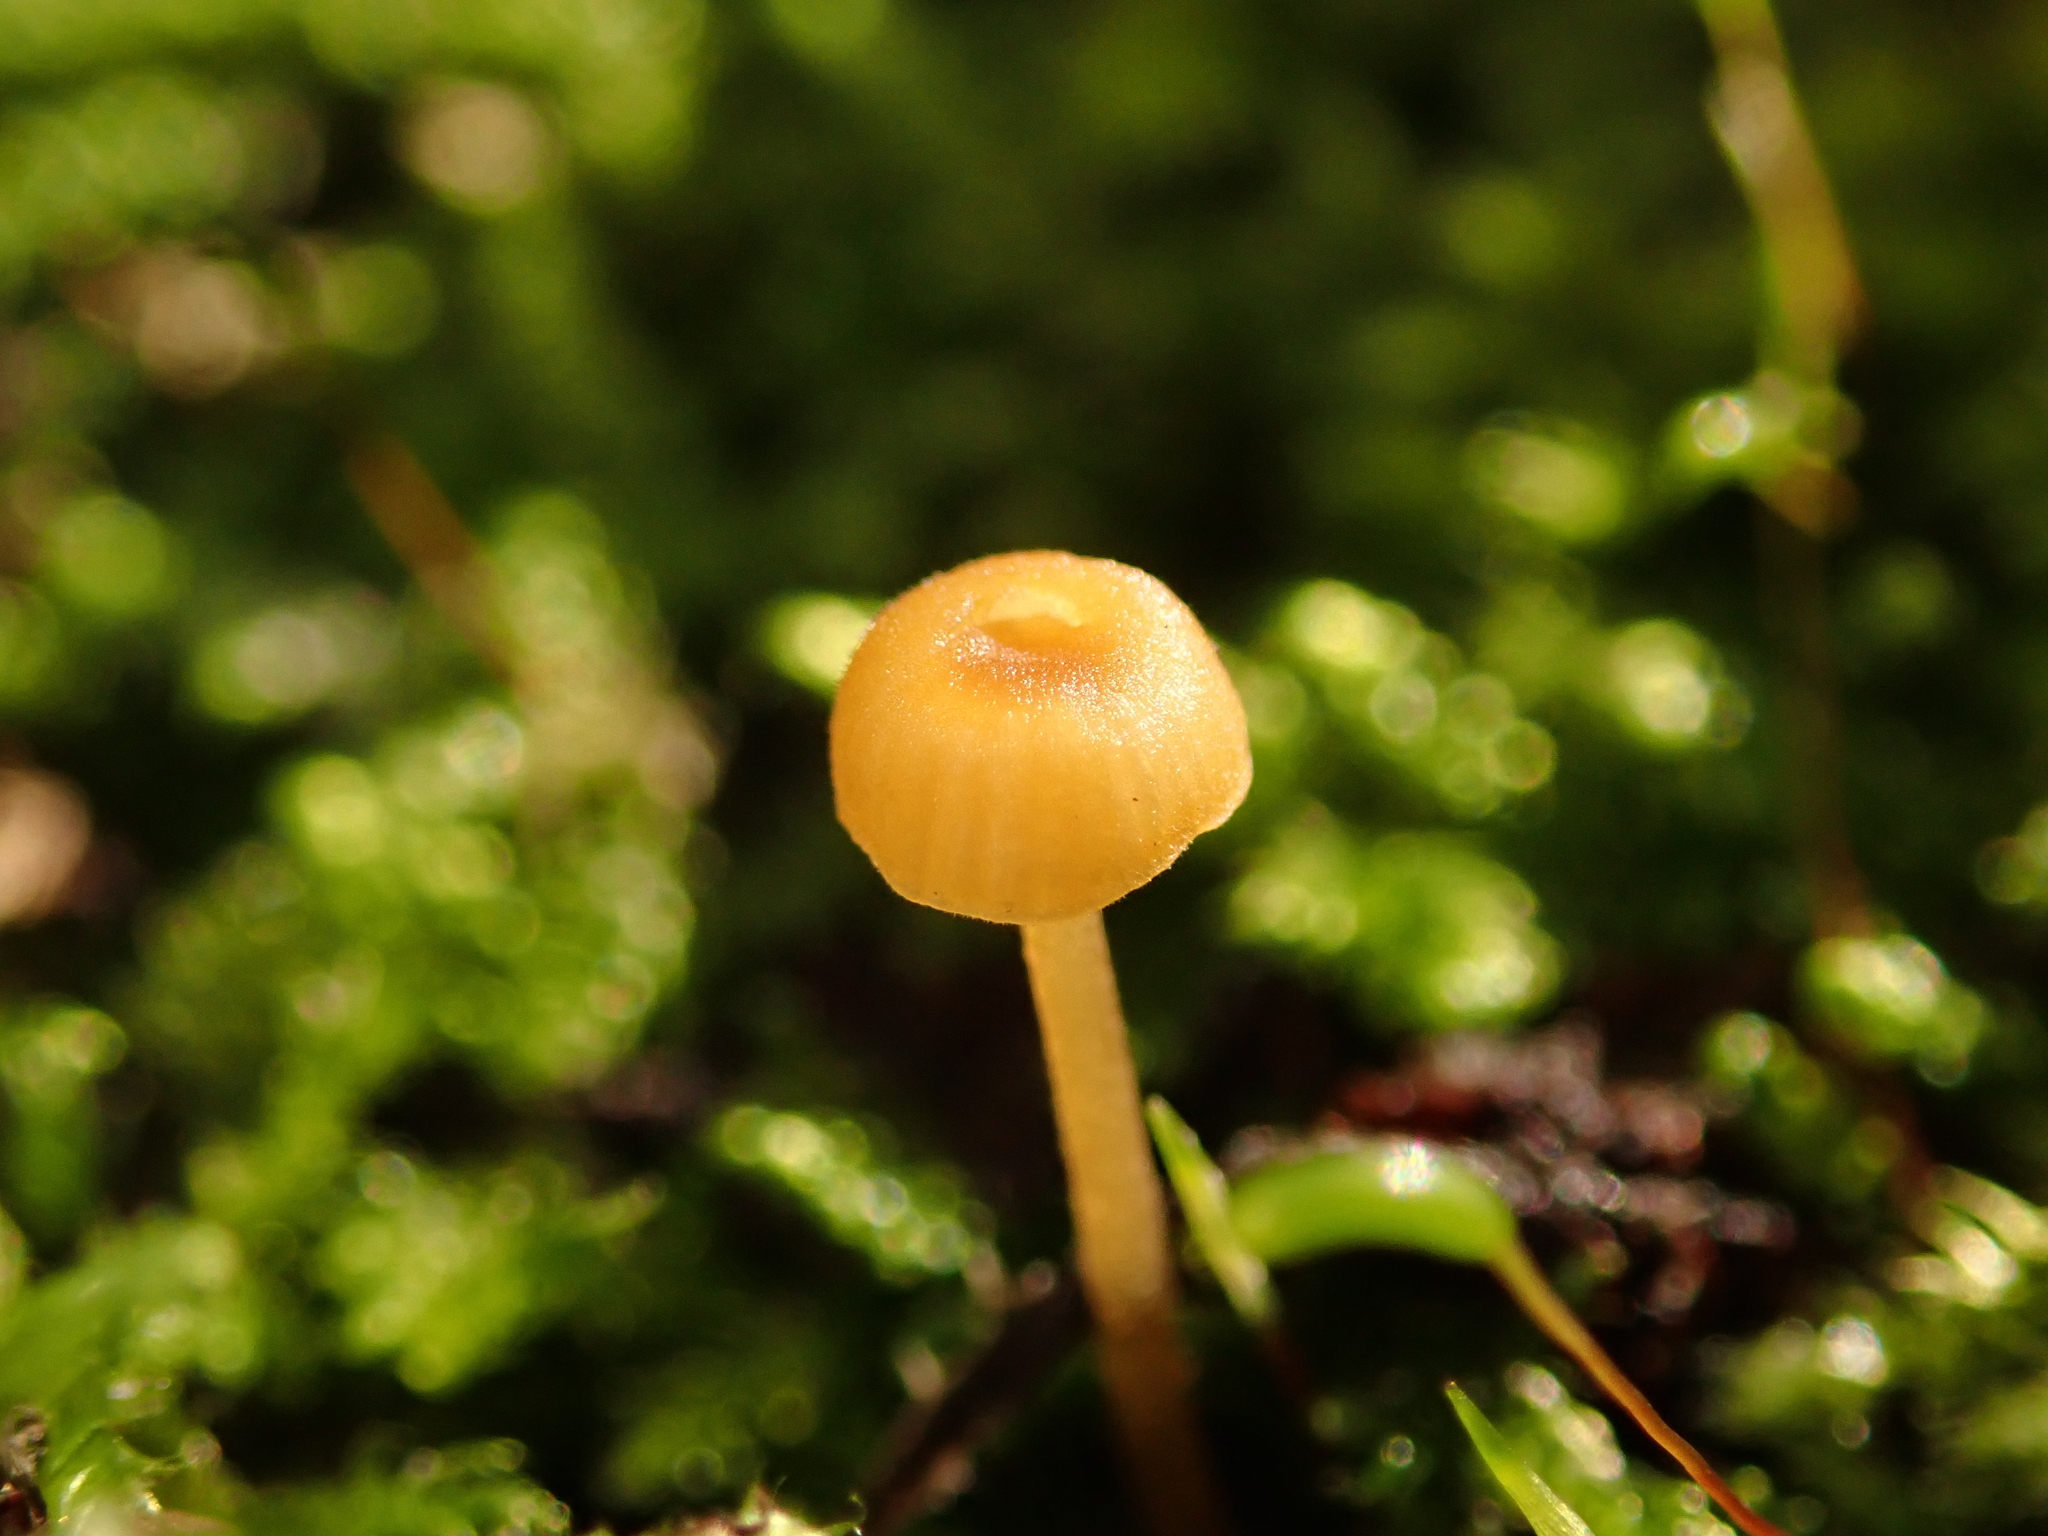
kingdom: Fungi
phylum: Basidiomycota
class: Agaricomycetes
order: Hymenochaetales
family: Rickenellaceae
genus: Rickenella
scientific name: Rickenella fibula
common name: Orange mosscap
